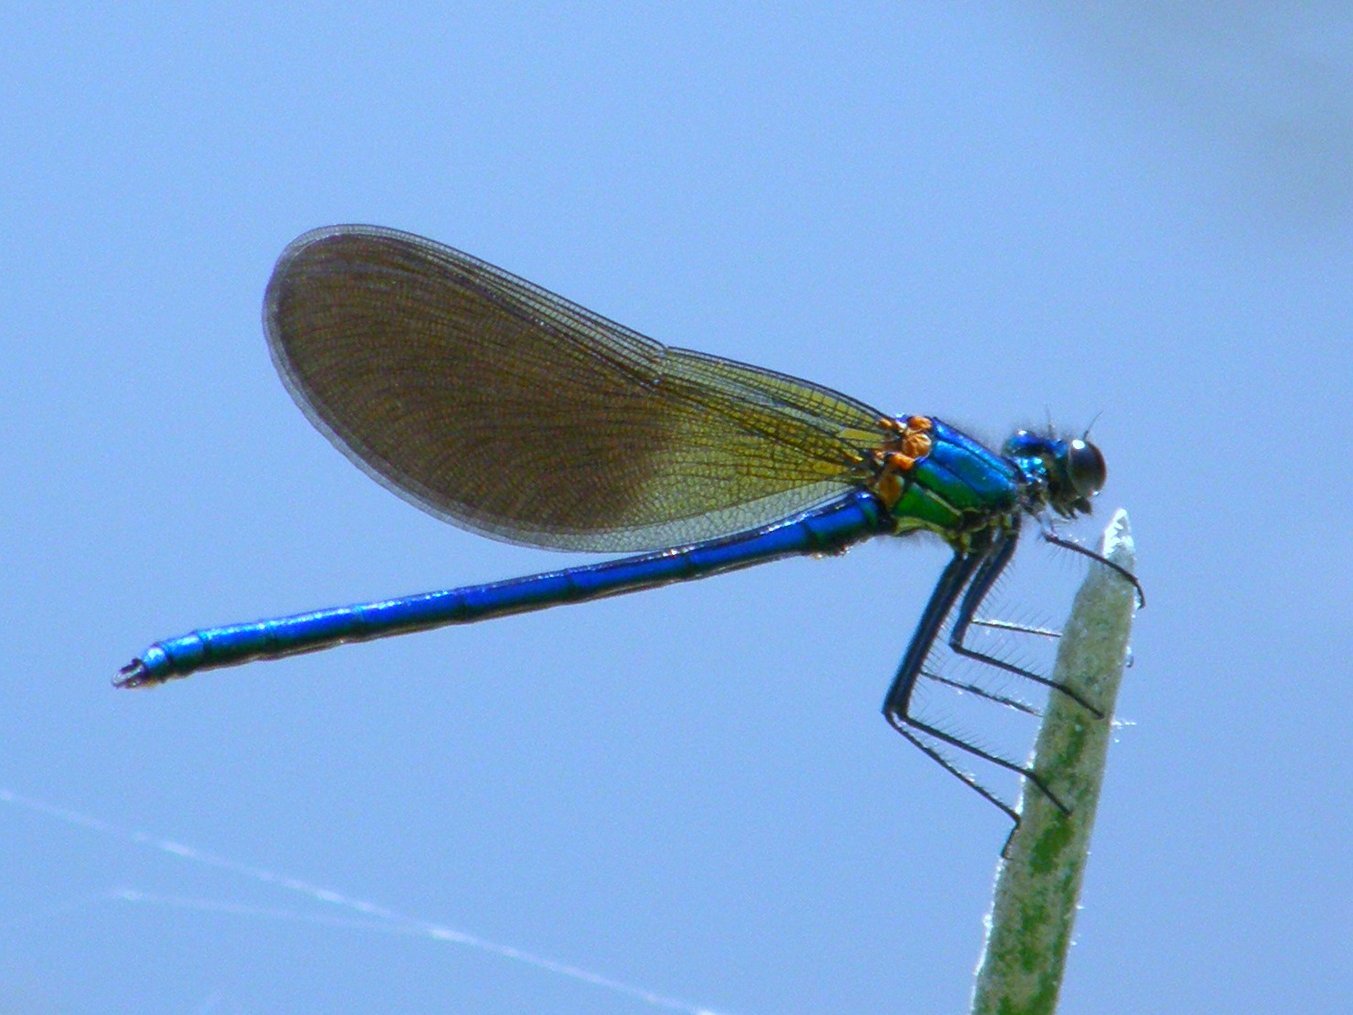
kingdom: Animalia
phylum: Arthropoda
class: Insecta
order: Odonata
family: Calopterygidae
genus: Calopteryx
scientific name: Calopteryx xanthostoma
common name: Western demoiselle
